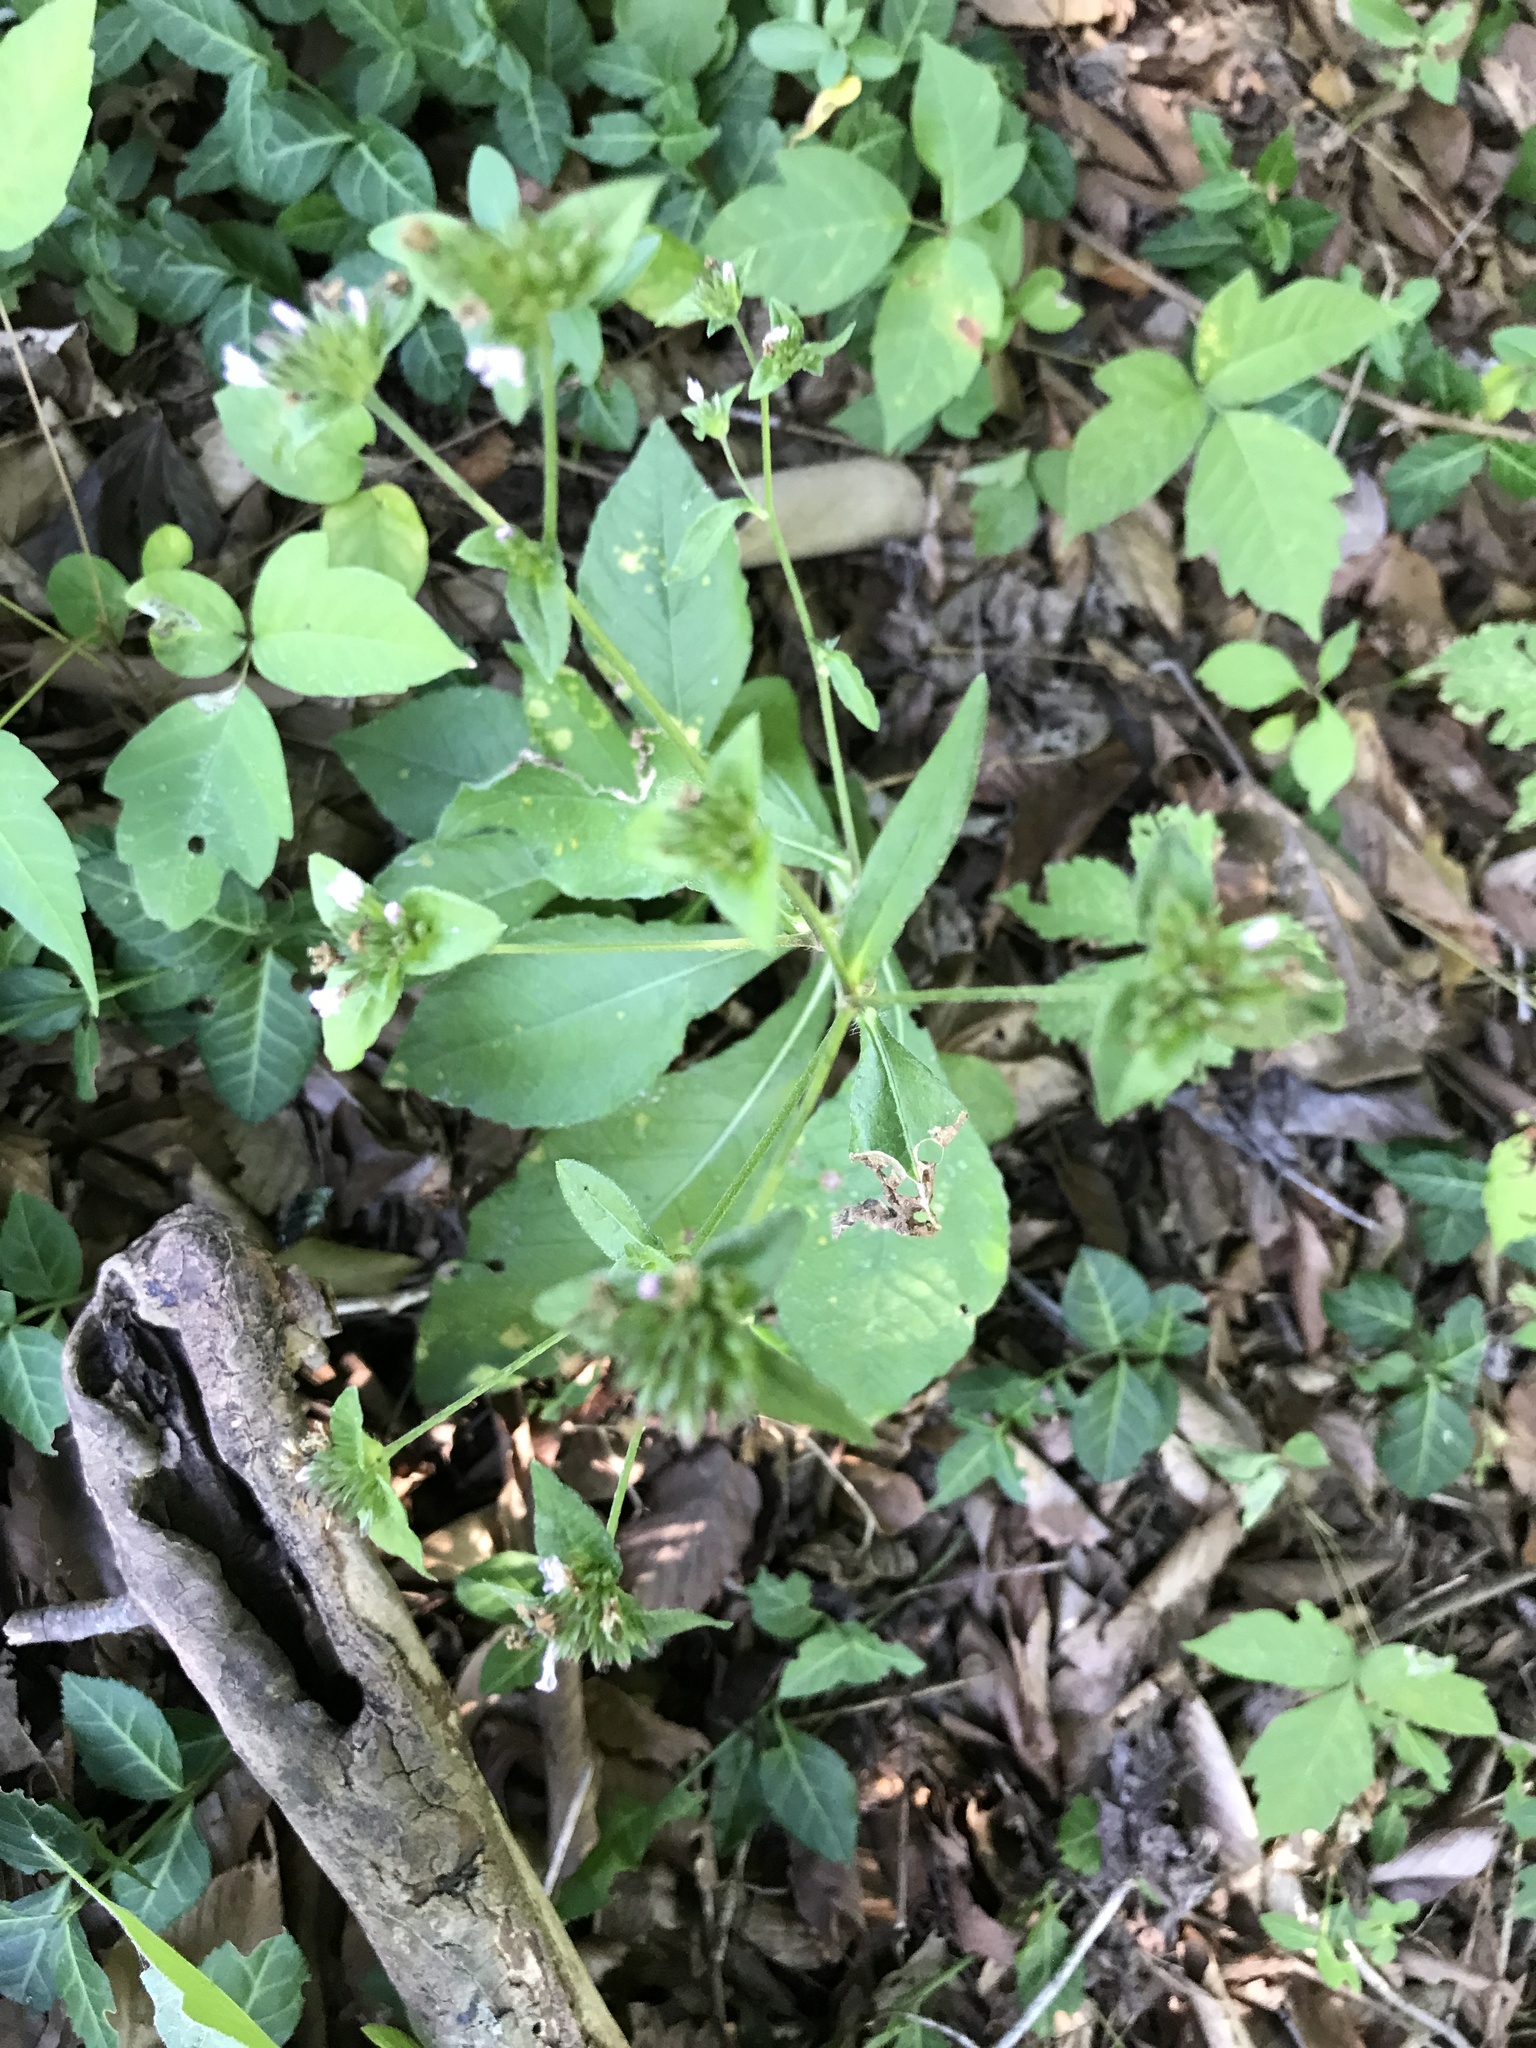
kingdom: Plantae
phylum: Tracheophyta
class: Magnoliopsida
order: Asterales
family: Asteraceae
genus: Elephantopus
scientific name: Elephantopus carolinianus
